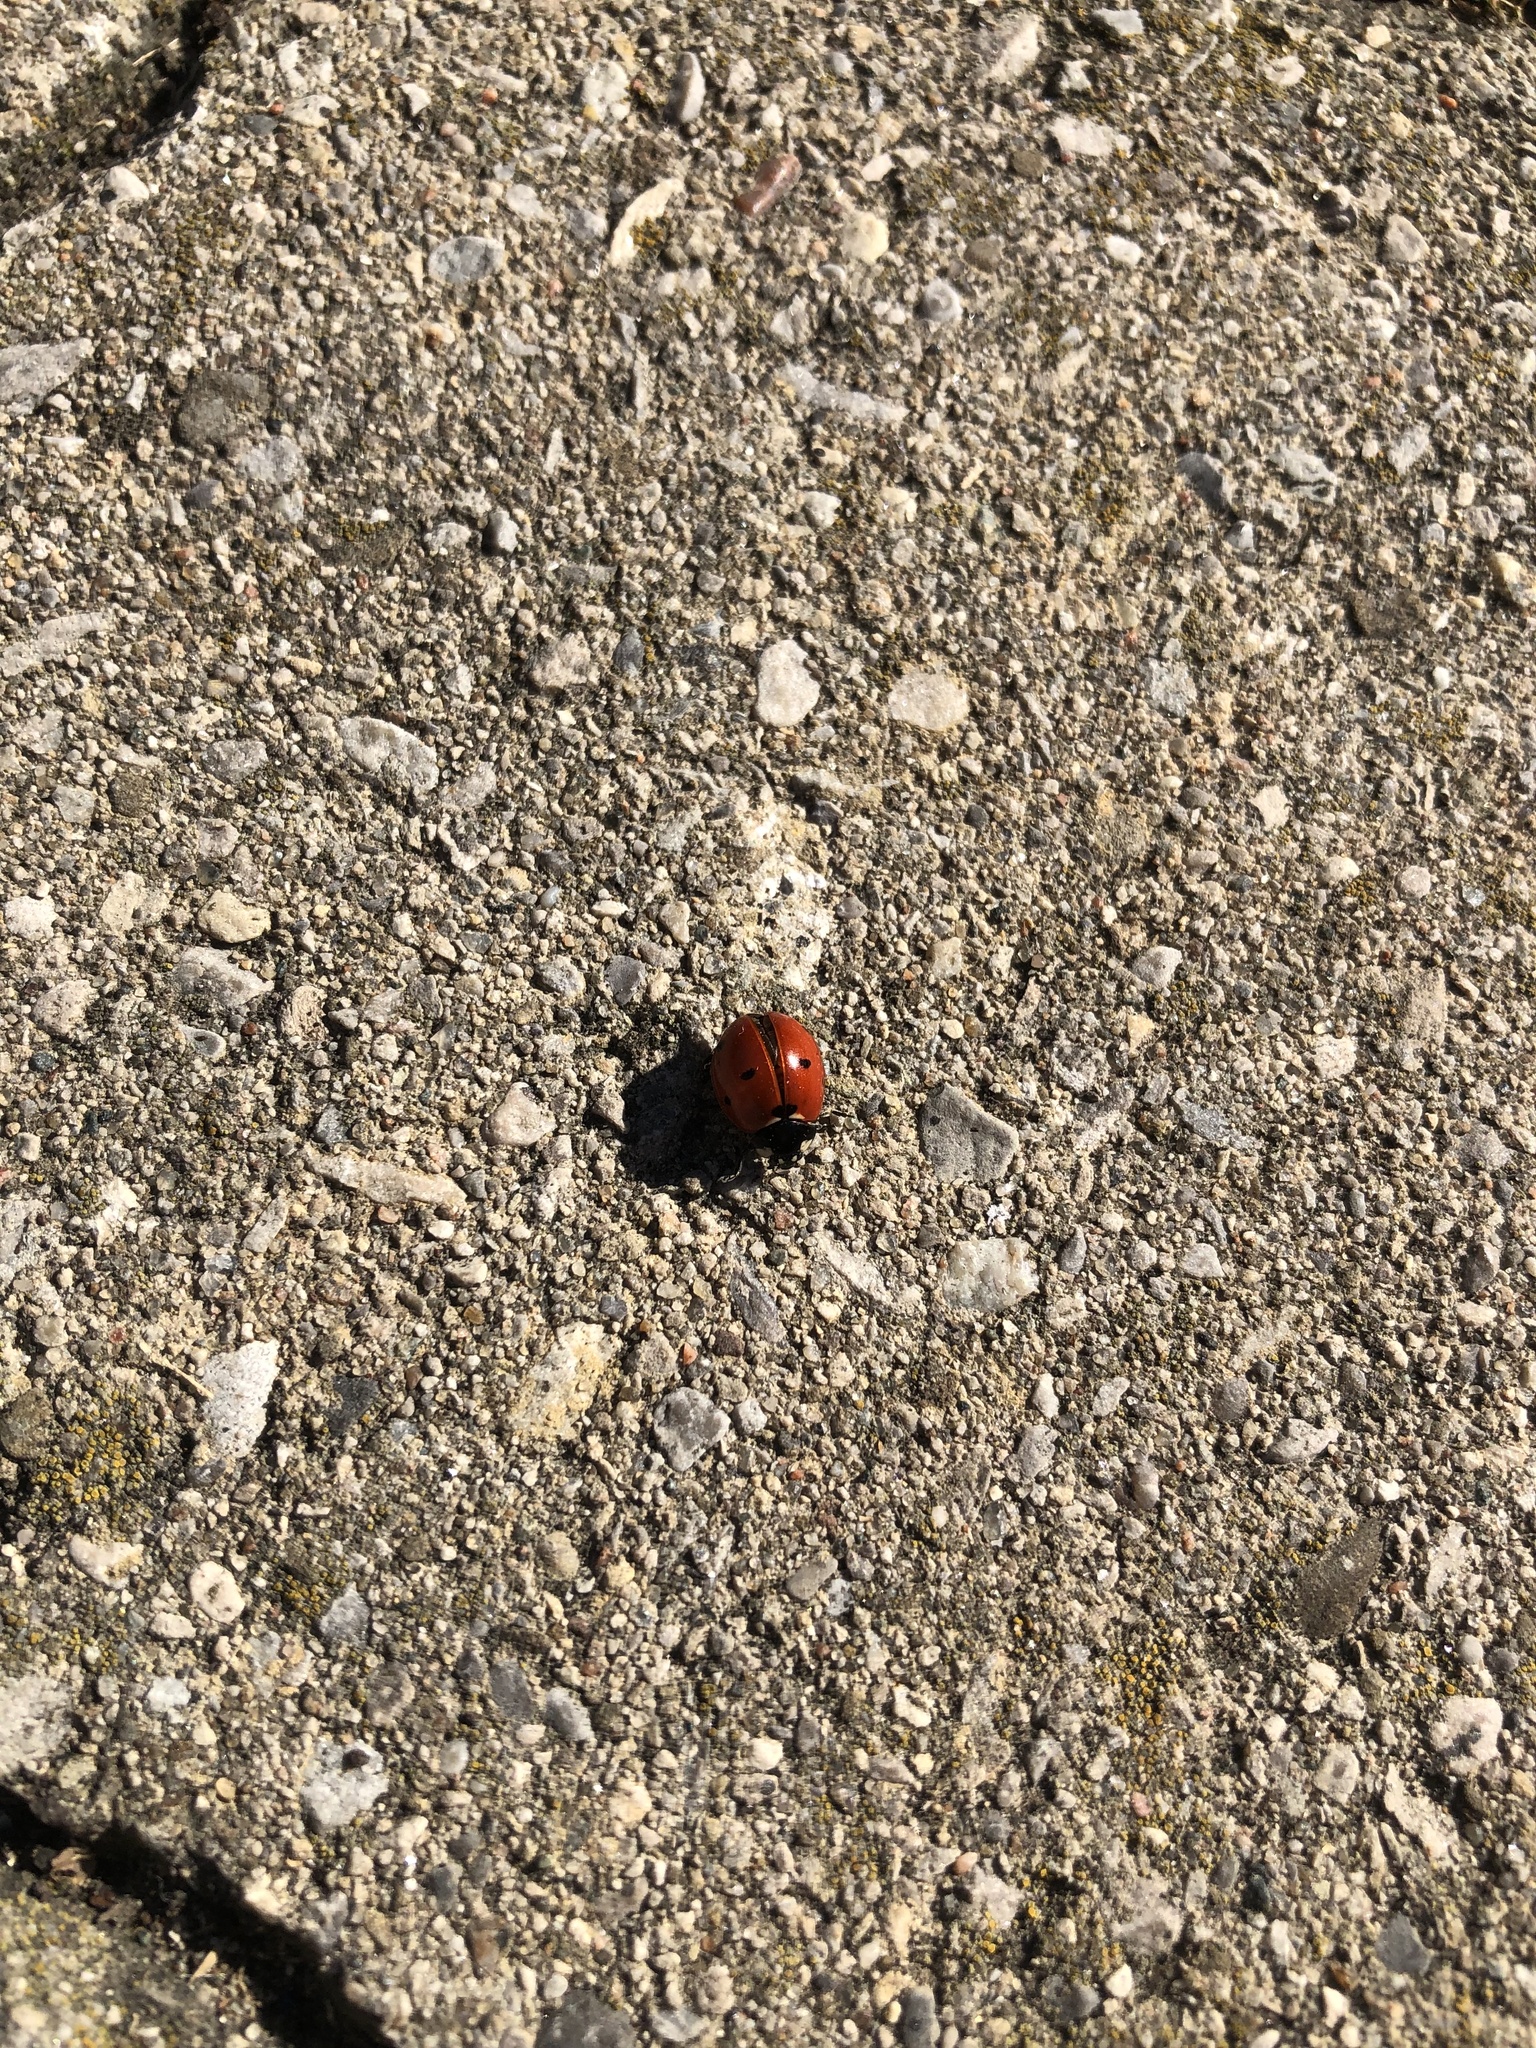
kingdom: Animalia
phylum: Arthropoda
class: Insecta
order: Coleoptera
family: Coccinellidae
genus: Coccinella
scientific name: Coccinella septempunctata
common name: Sevenspotted lady beetle
